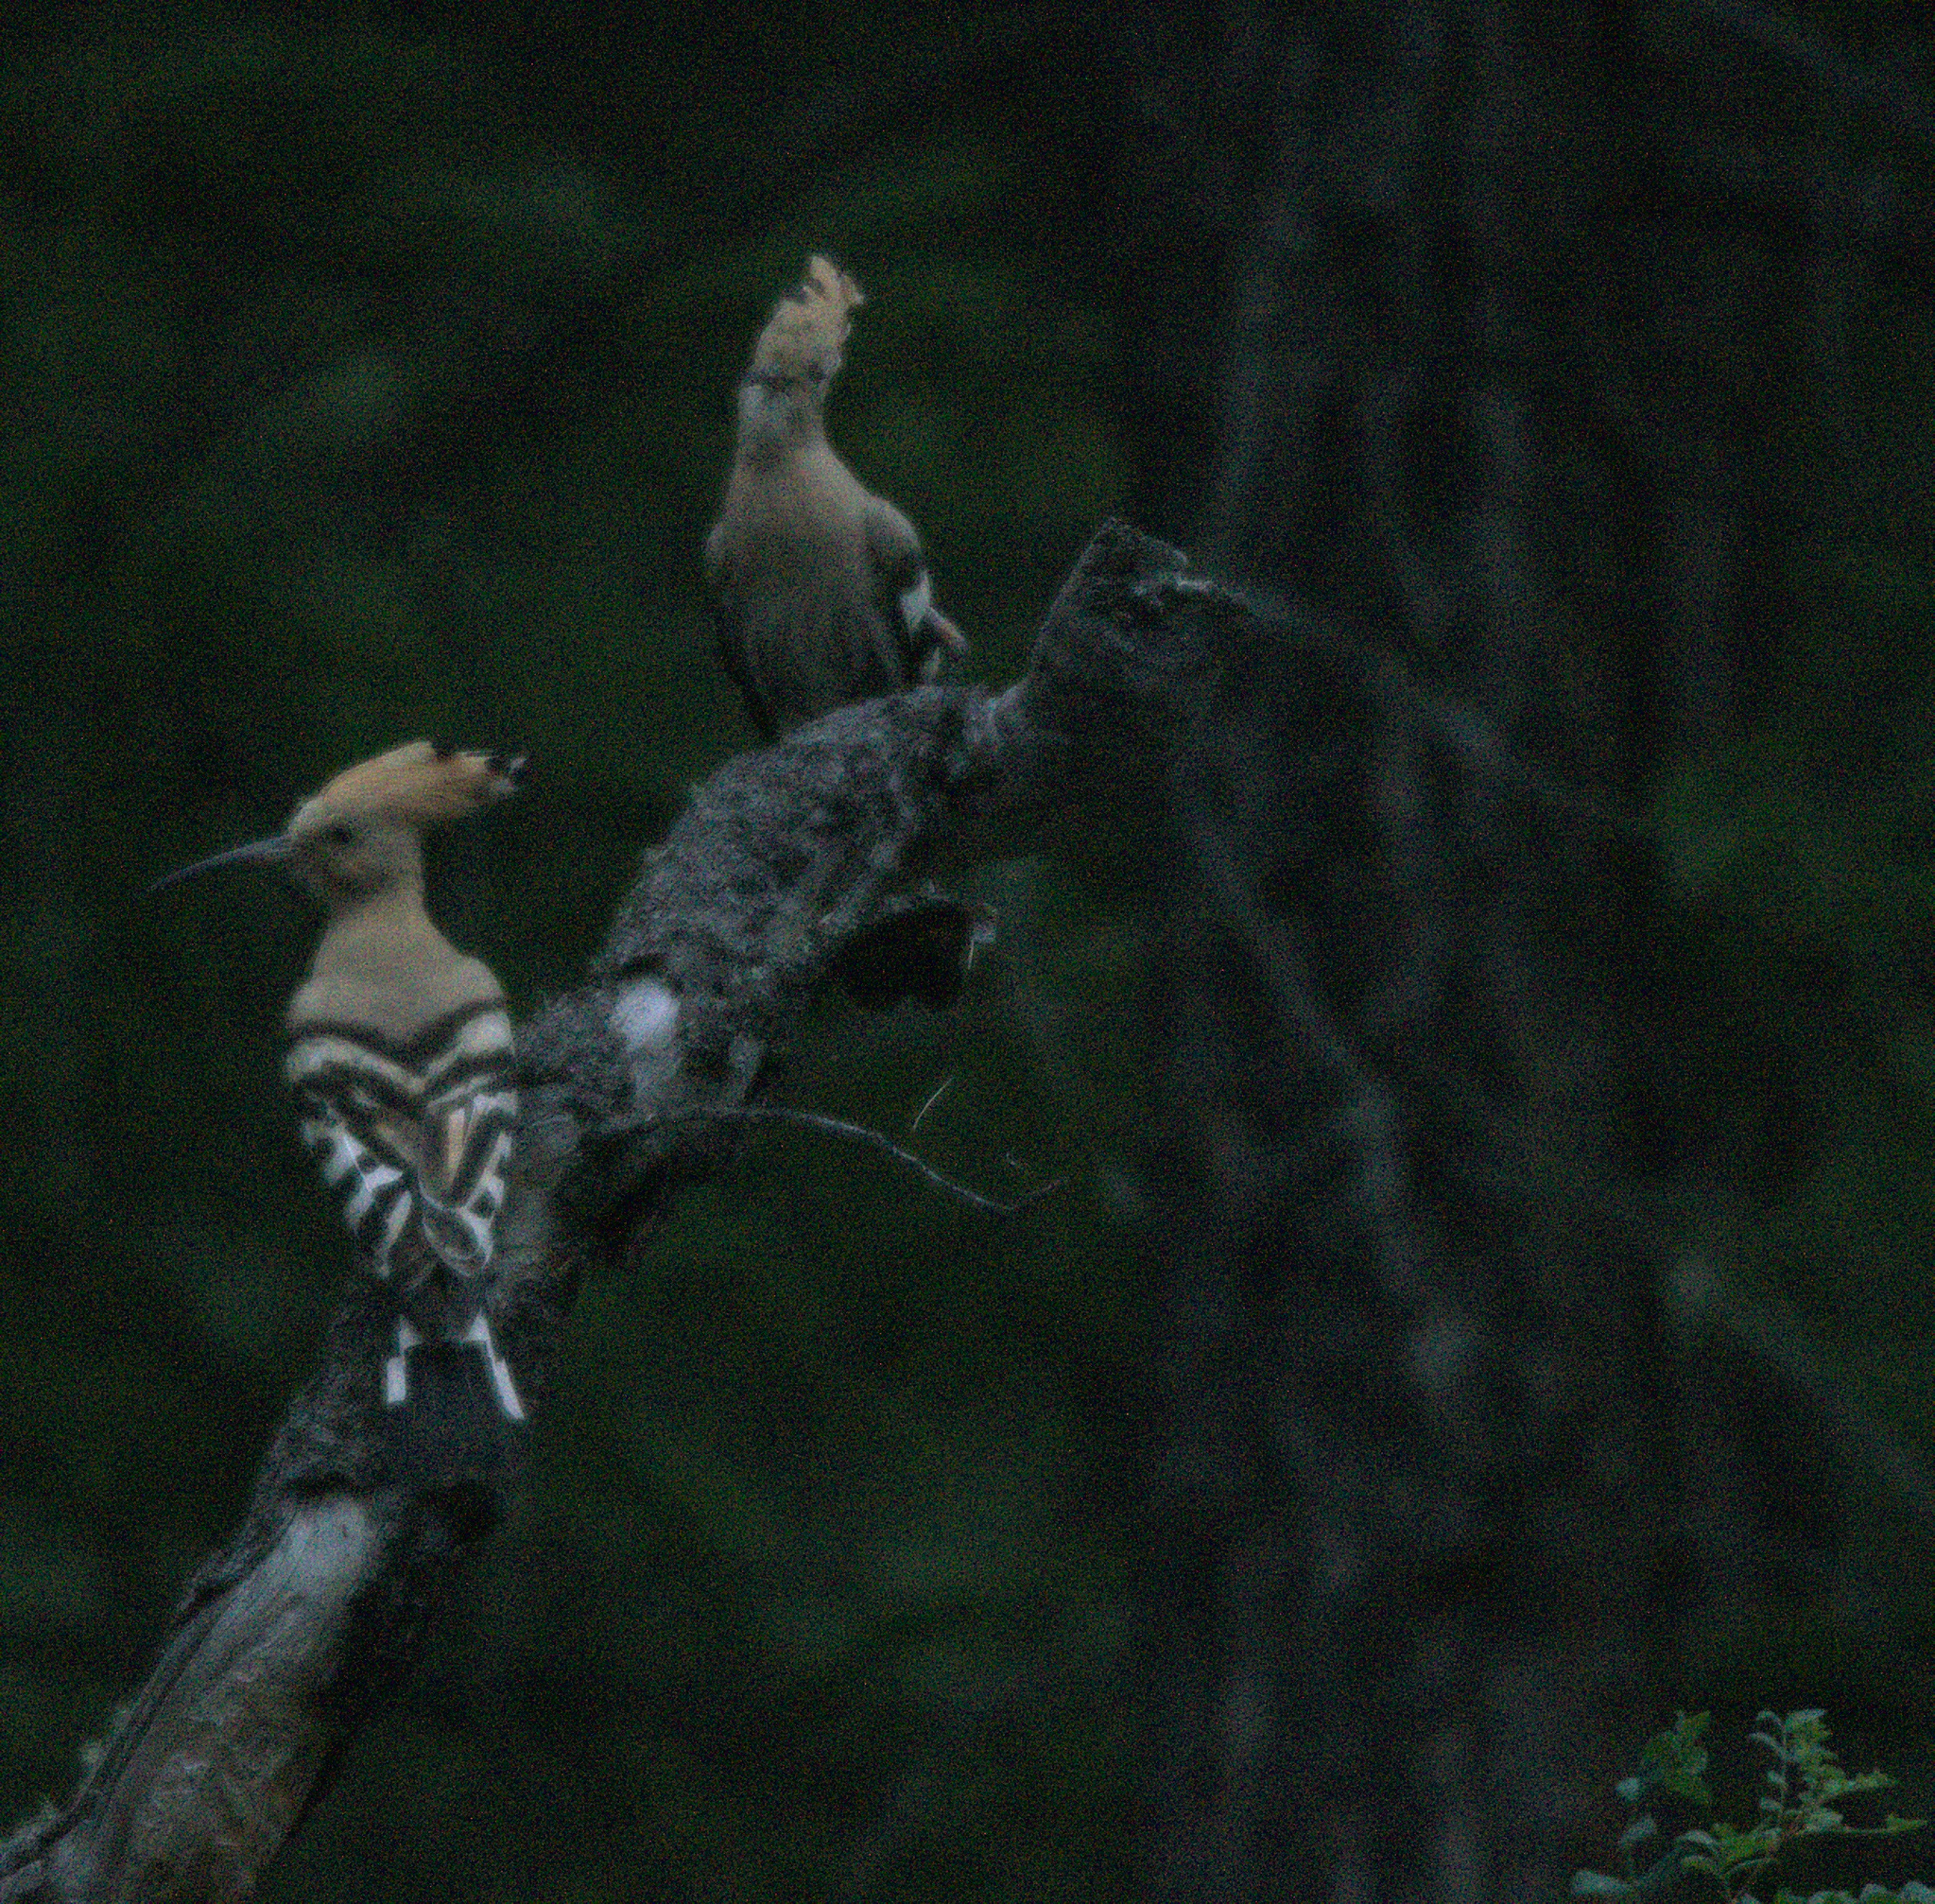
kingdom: Animalia
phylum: Chordata
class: Aves
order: Bucerotiformes
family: Upupidae
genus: Upupa
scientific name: Upupa epops
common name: Eurasian hoopoe
